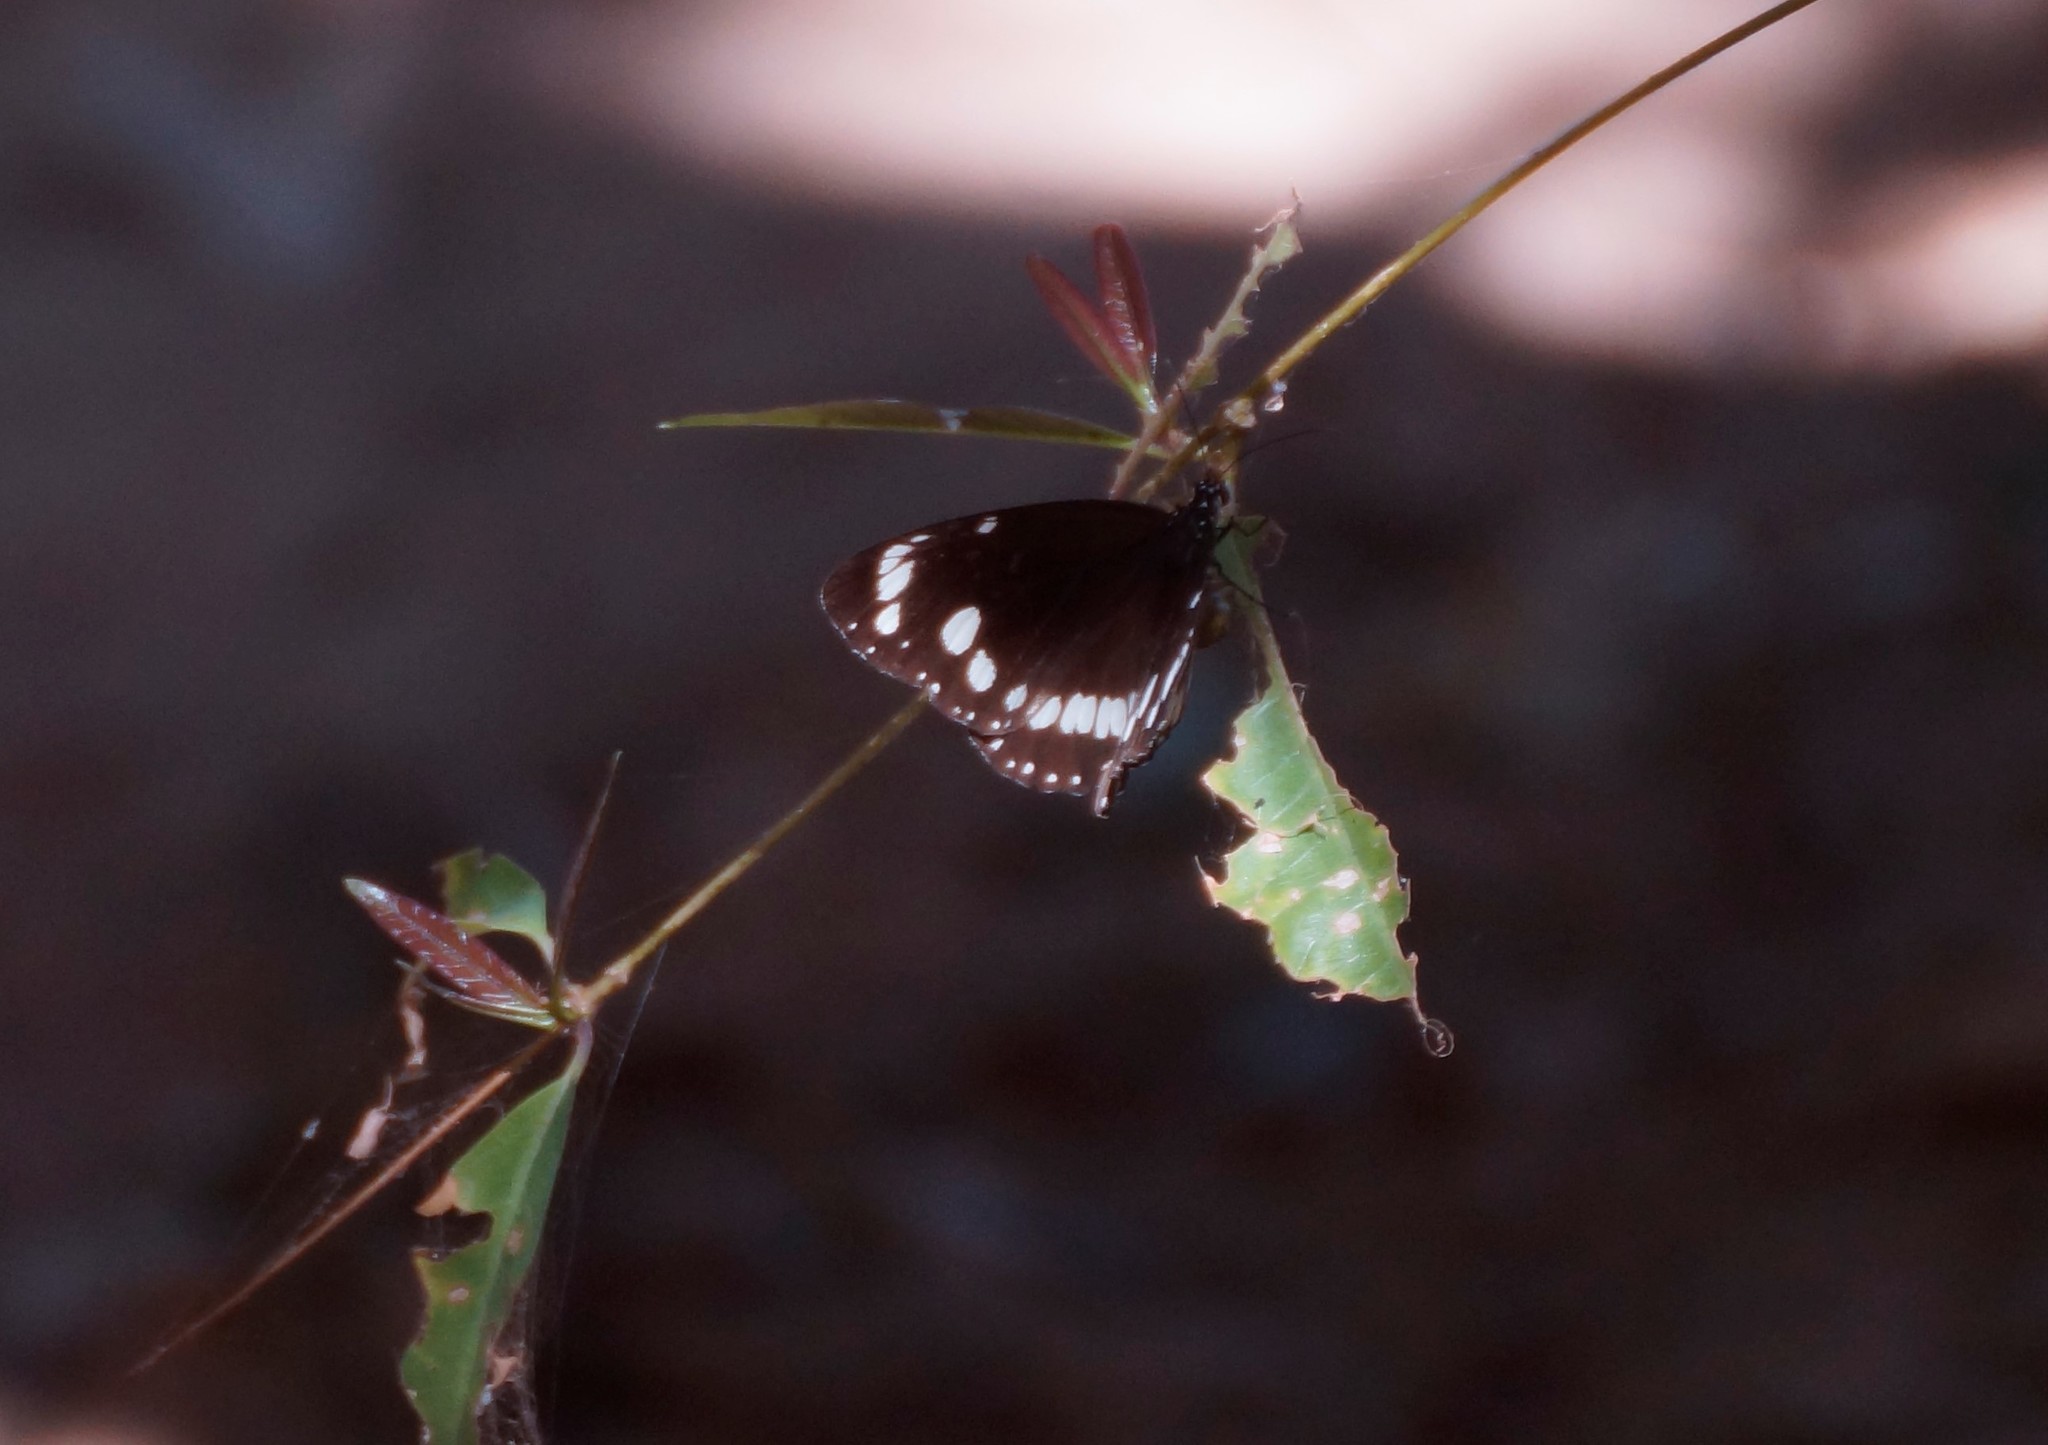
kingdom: Animalia
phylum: Arthropoda
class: Insecta
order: Lepidoptera
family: Nymphalidae
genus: Euploea
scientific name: Euploea core
